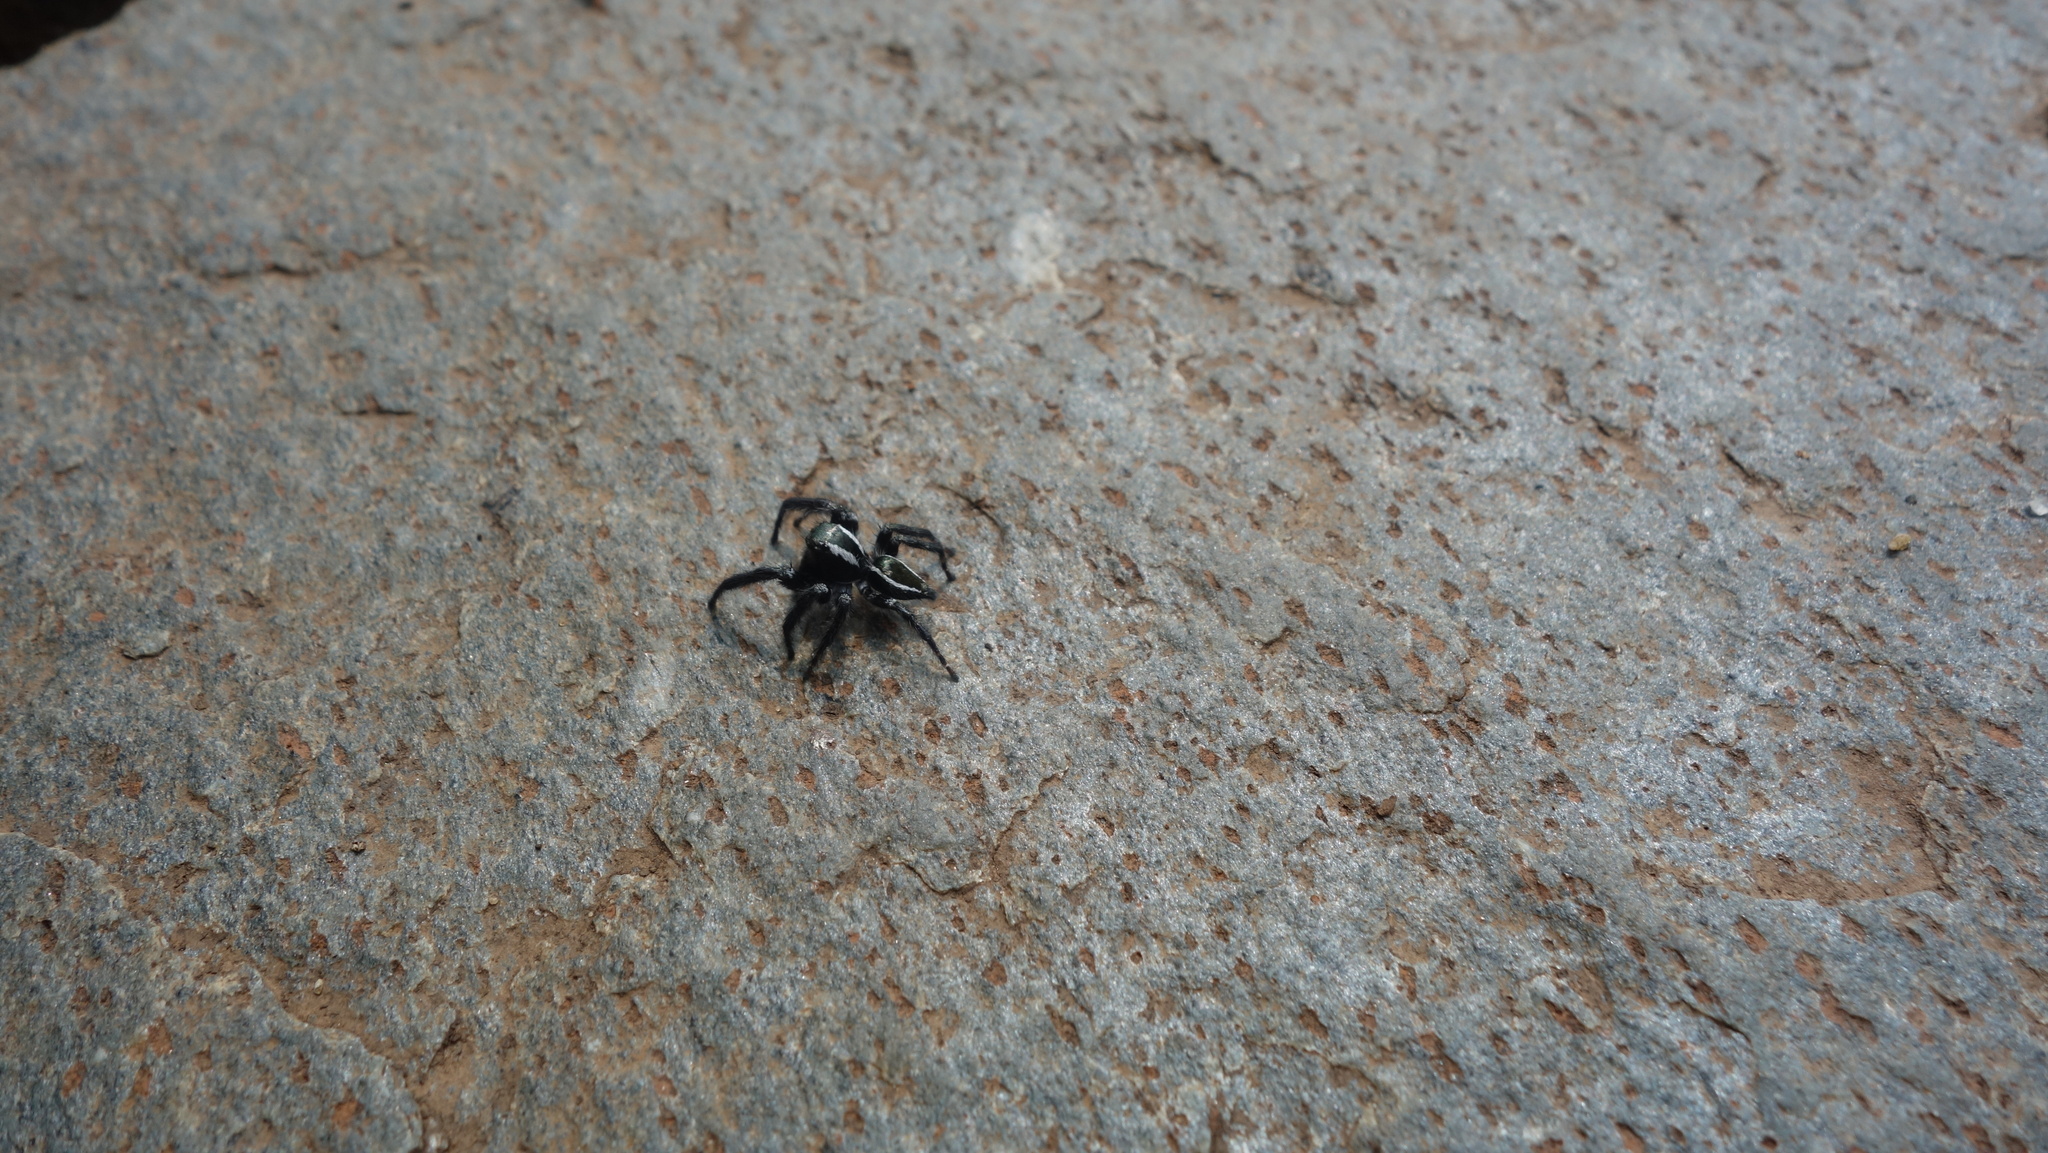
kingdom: Animalia
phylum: Arthropoda
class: Arachnida
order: Araneae
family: Salticidae
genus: Carrhotus
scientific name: Carrhotus viduus
